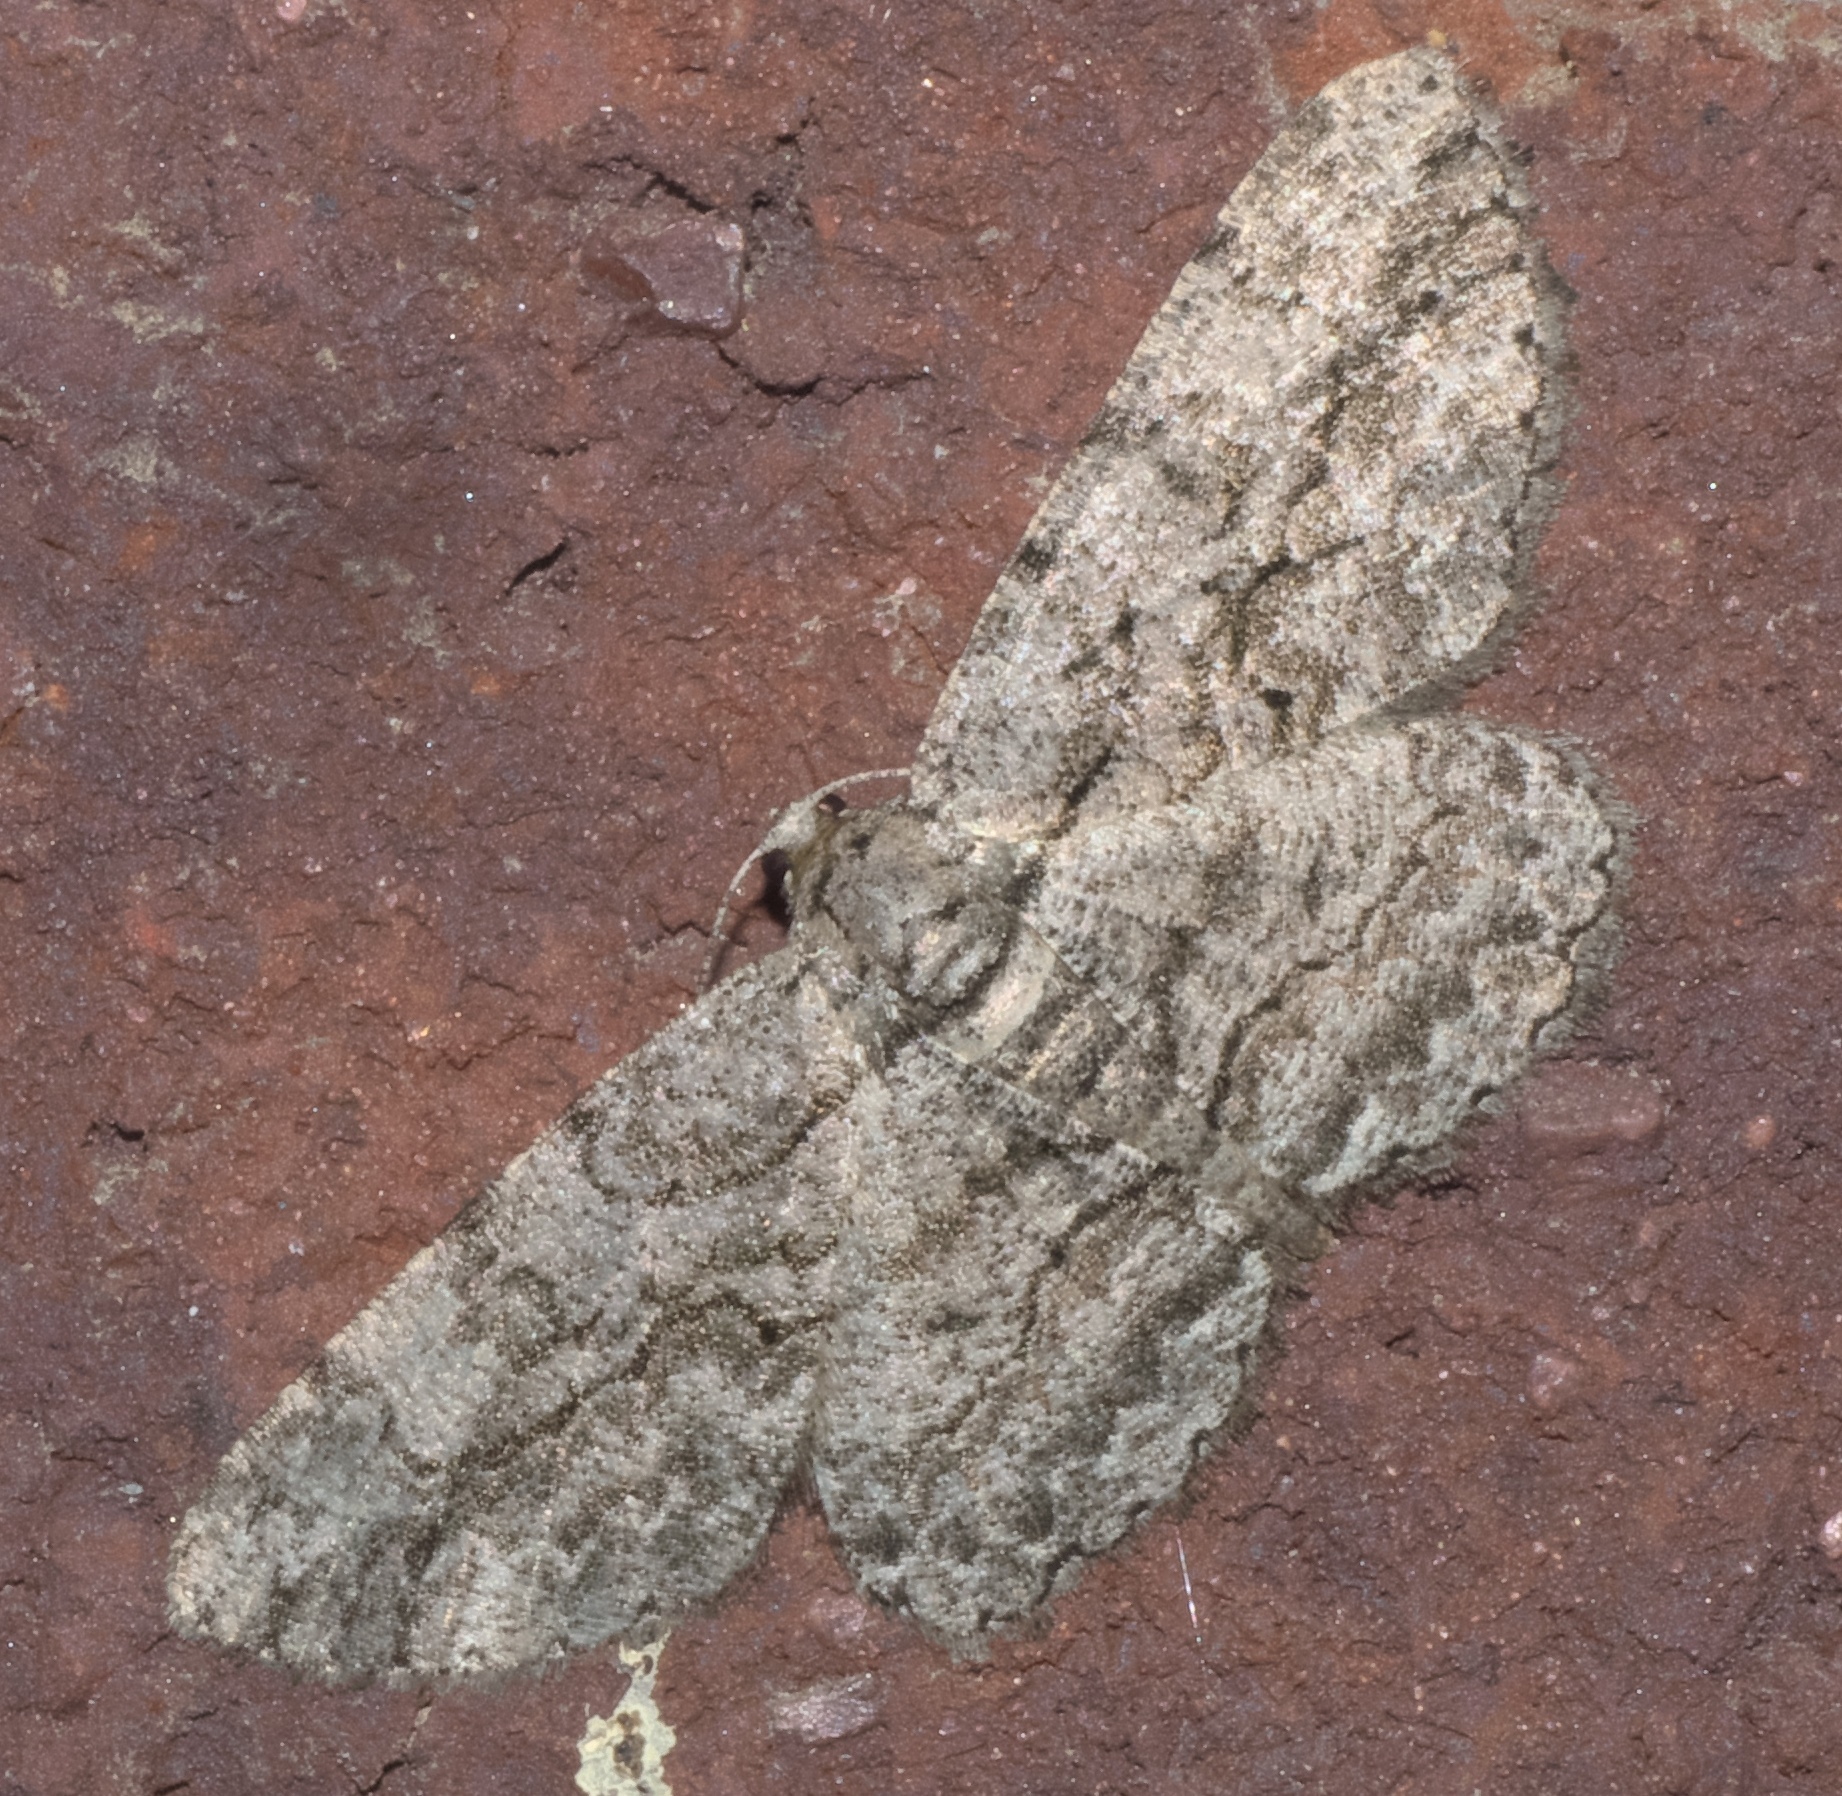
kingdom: Animalia
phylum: Arthropoda
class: Insecta
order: Lepidoptera
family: Geometridae
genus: Anavitrinella
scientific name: Anavitrinella pampinaria
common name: Common gray
